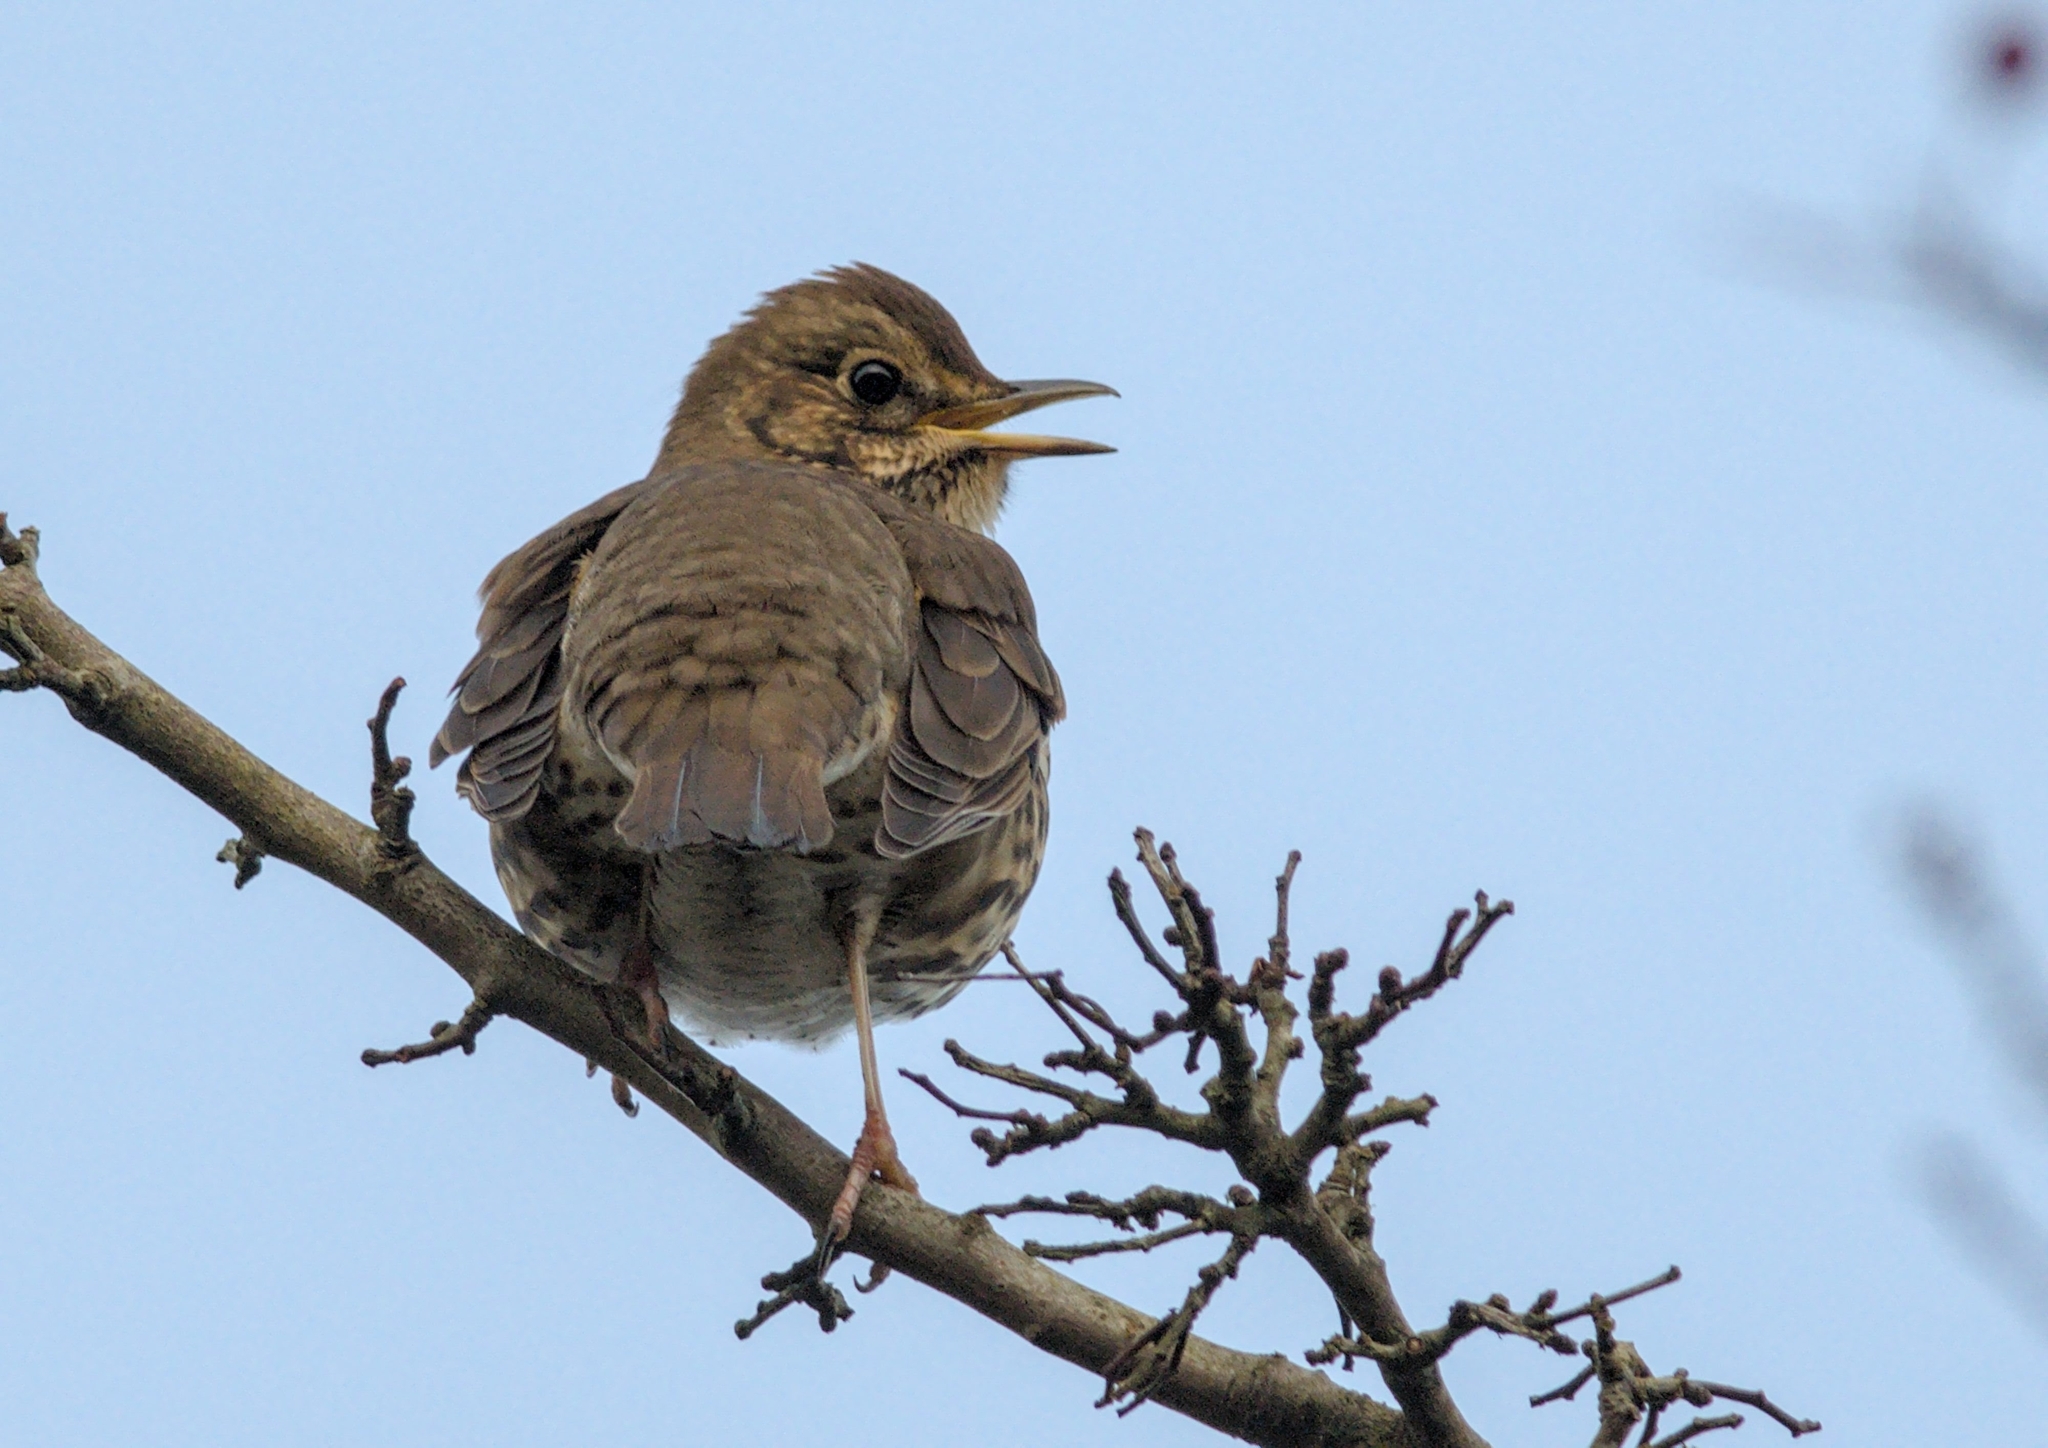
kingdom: Animalia
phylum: Chordata
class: Aves
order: Passeriformes
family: Turdidae
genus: Turdus
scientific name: Turdus philomelos
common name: Song thrush
